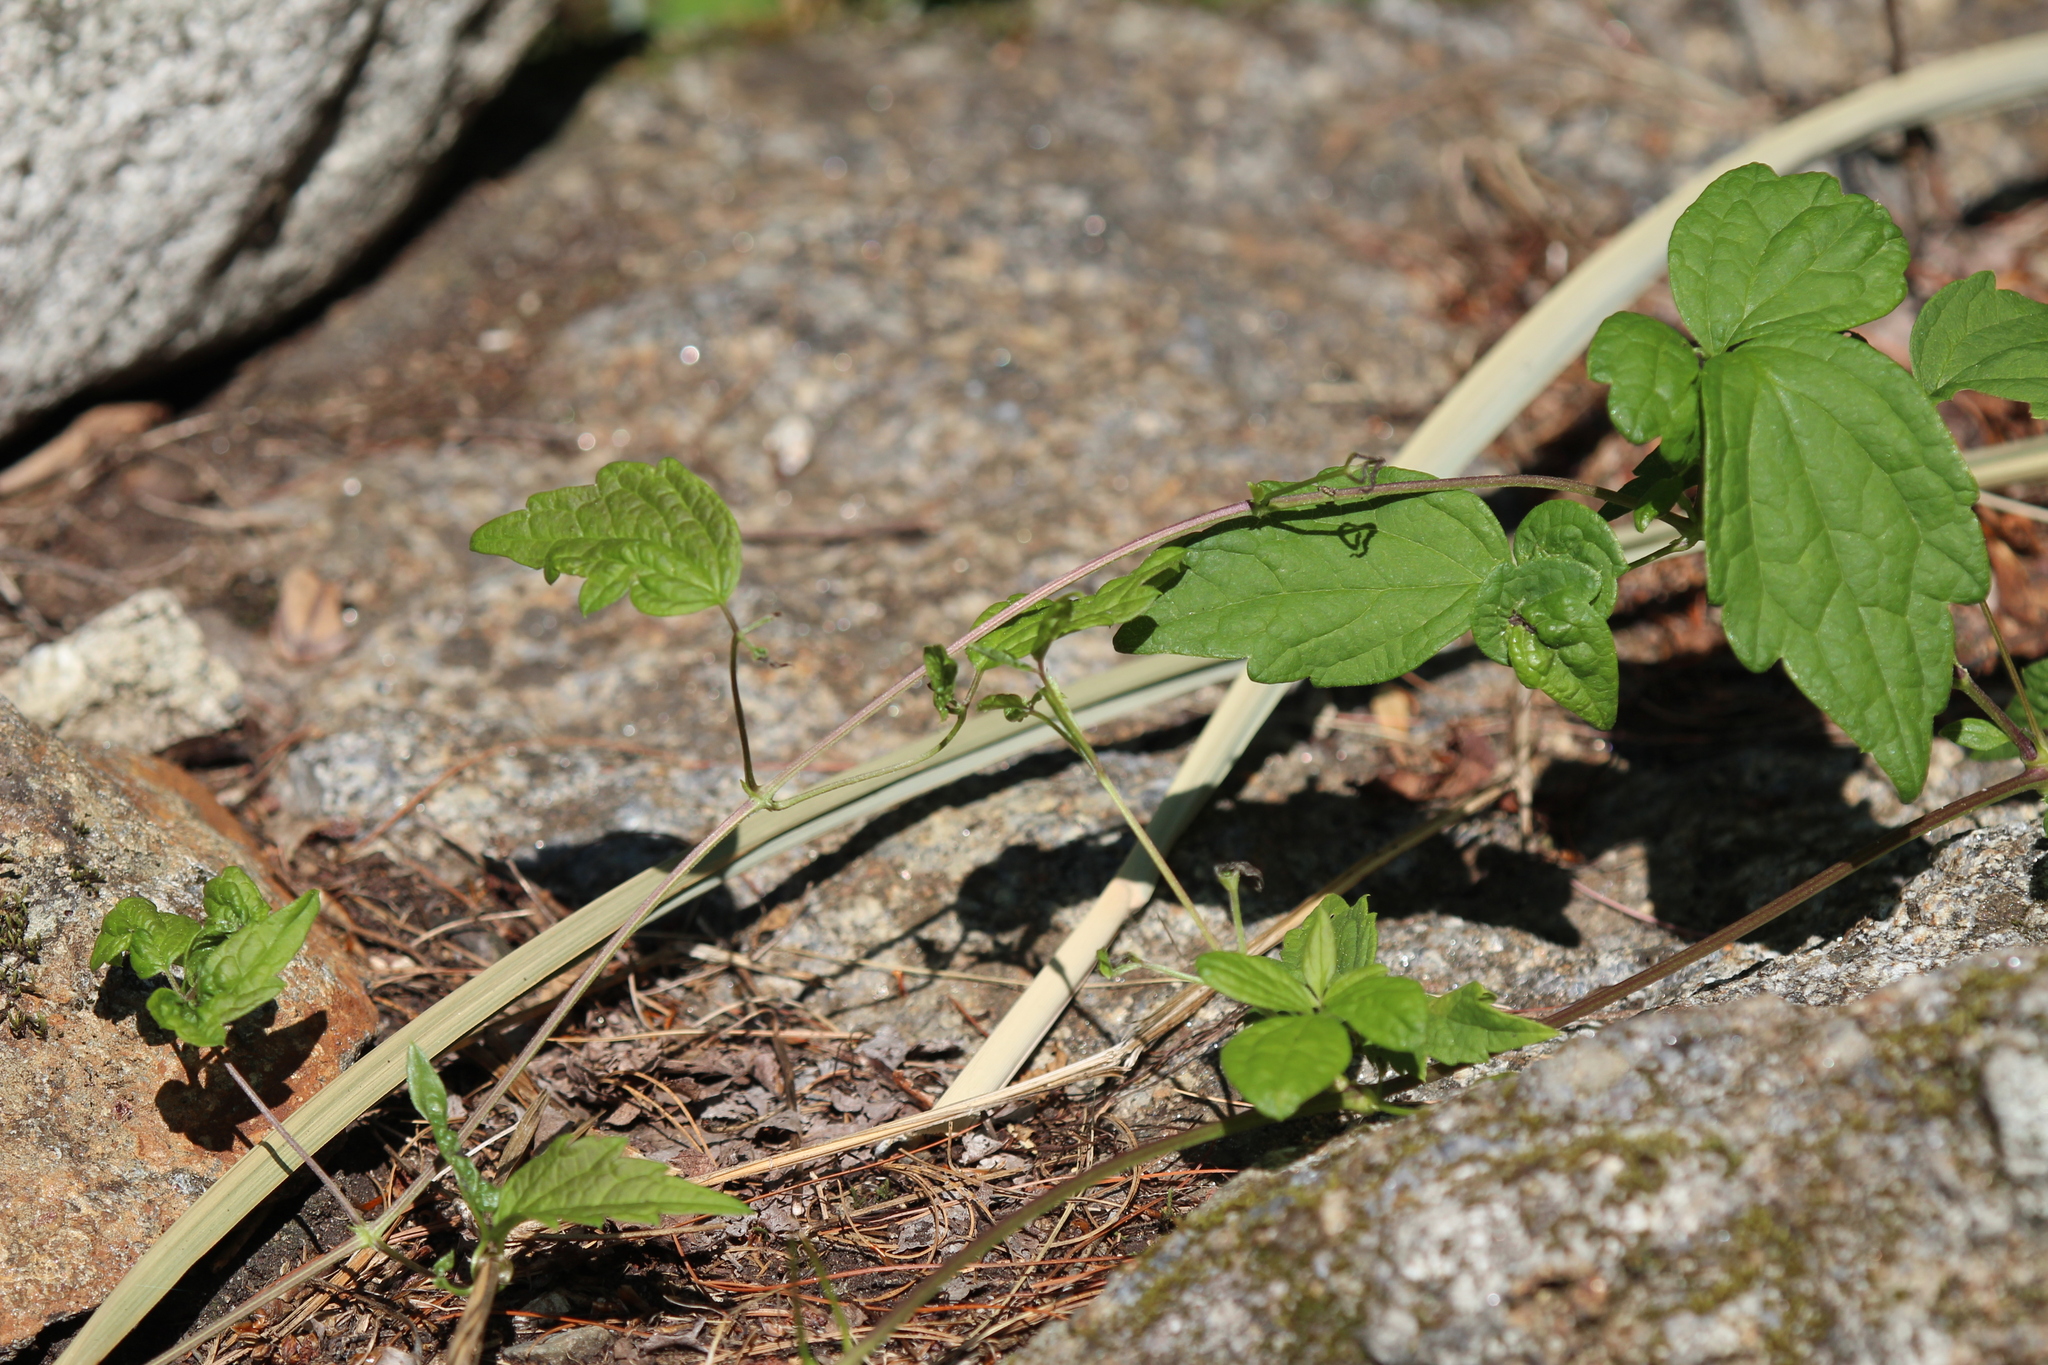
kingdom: Plantae
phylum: Tracheophyta
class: Magnoliopsida
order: Ranunculales
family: Ranunculaceae
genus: Clematis
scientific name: Clematis virginiana
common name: Virgin's-bower
